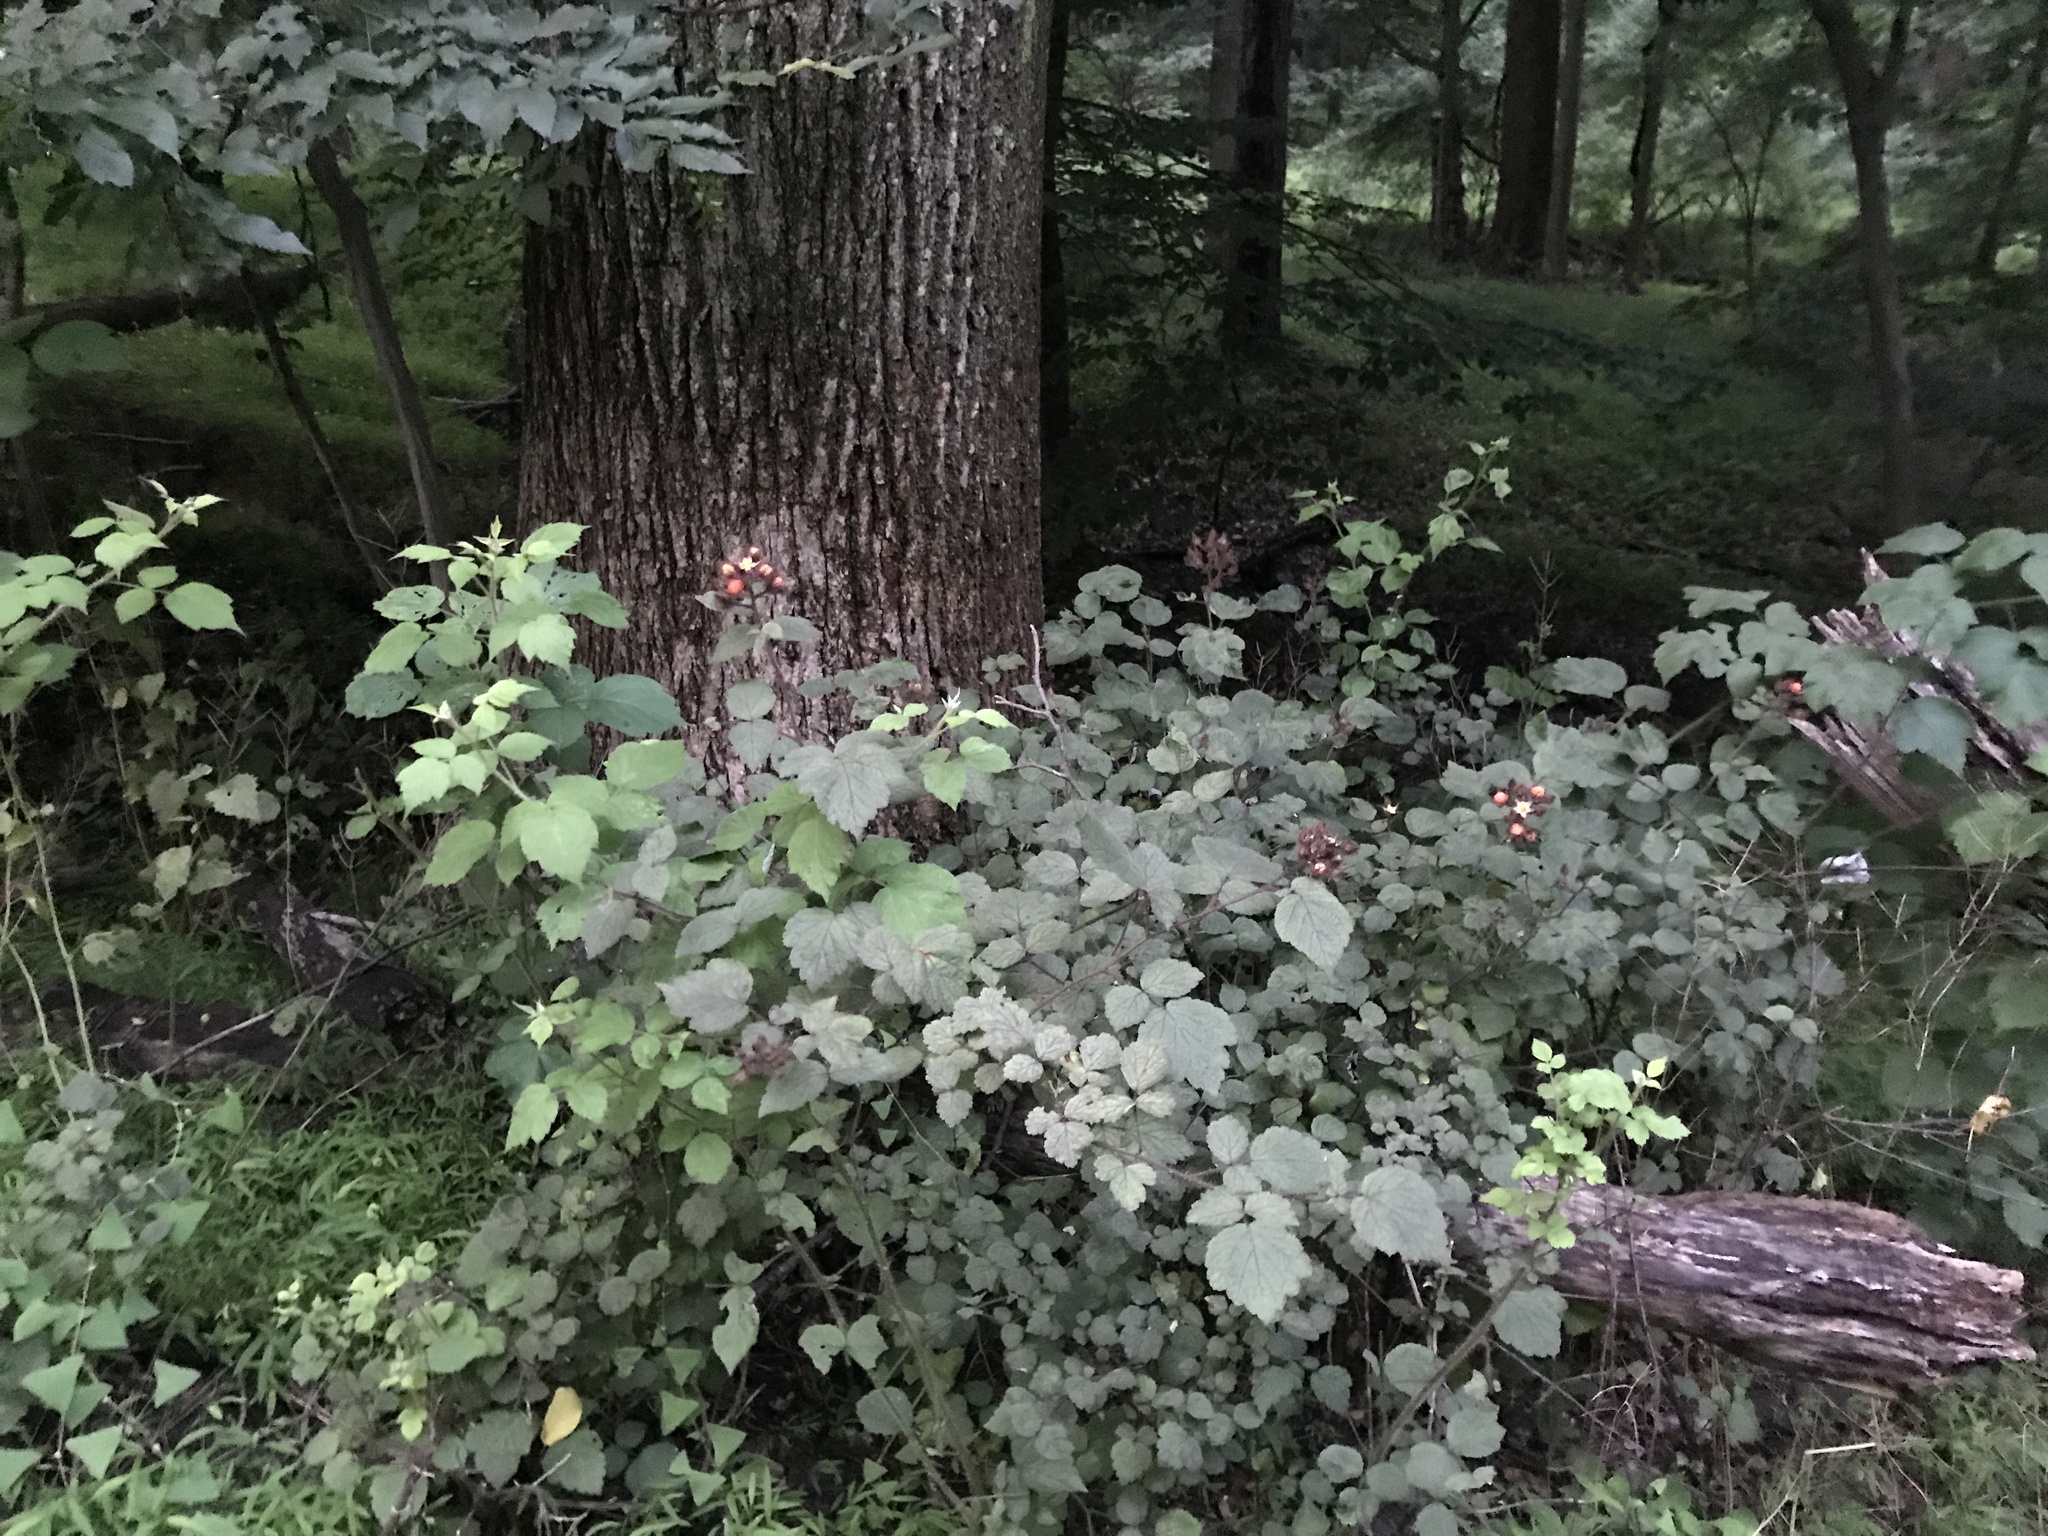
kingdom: Plantae
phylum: Tracheophyta
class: Magnoliopsida
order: Rosales
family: Rosaceae
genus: Rubus
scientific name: Rubus phoenicolasius
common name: Japanese wineberry
